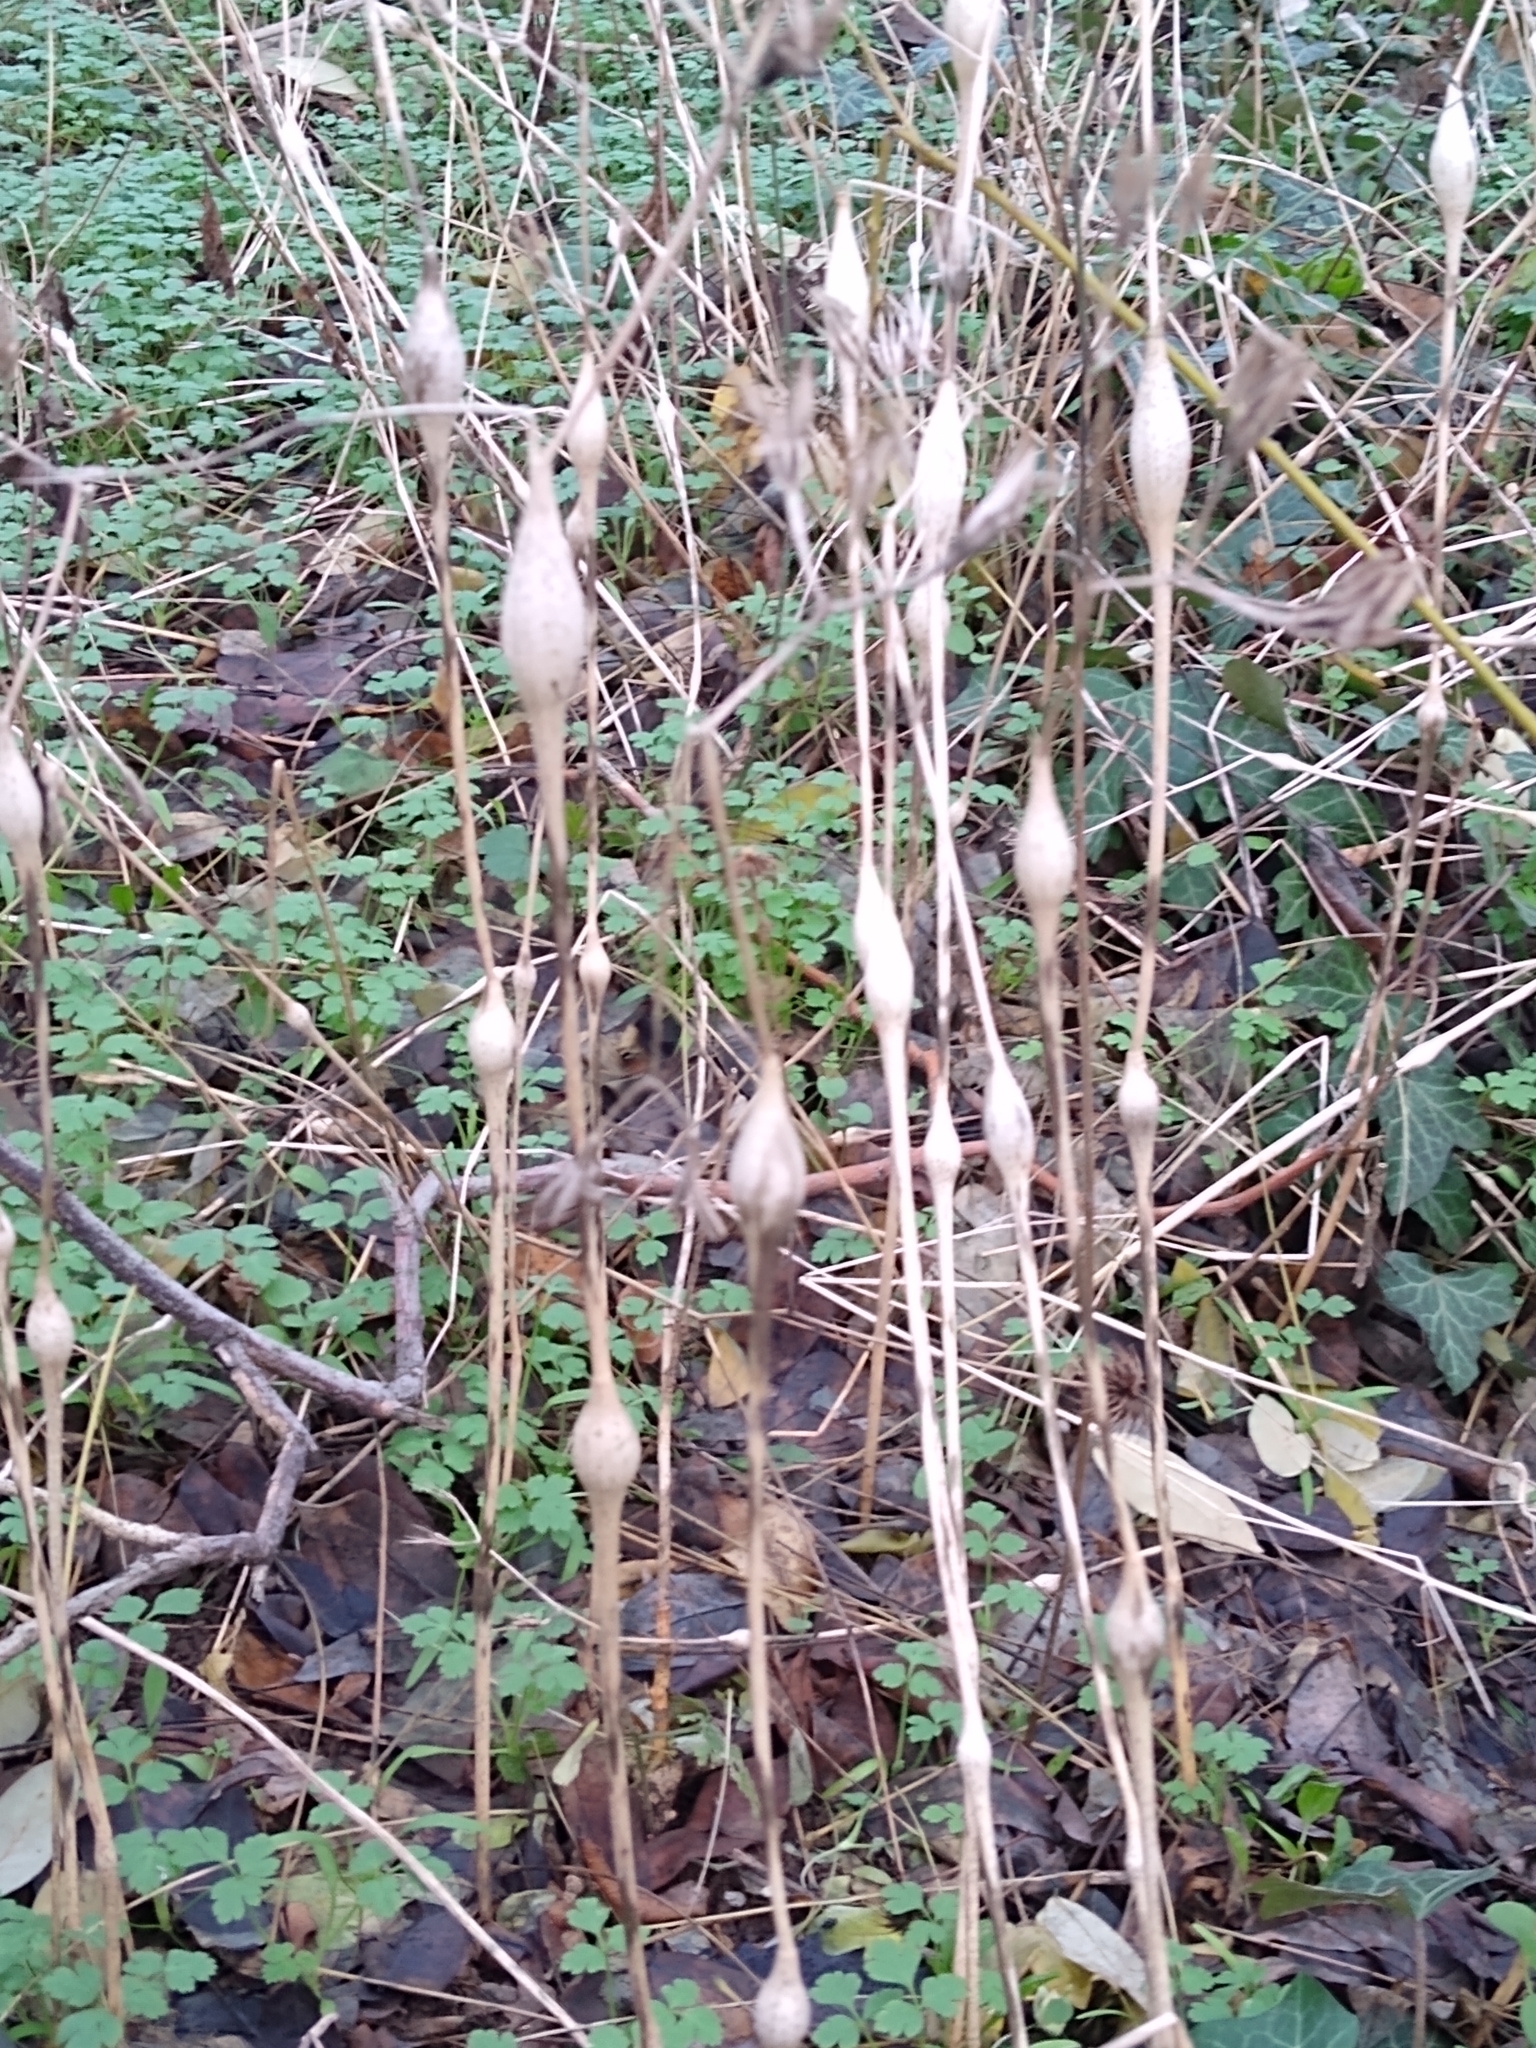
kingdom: Plantae
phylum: Tracheophyta
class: Magnoliopsida
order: Apiales
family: Apiaceae
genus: Chaerophyllum
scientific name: Chaerophyllum nodosum
